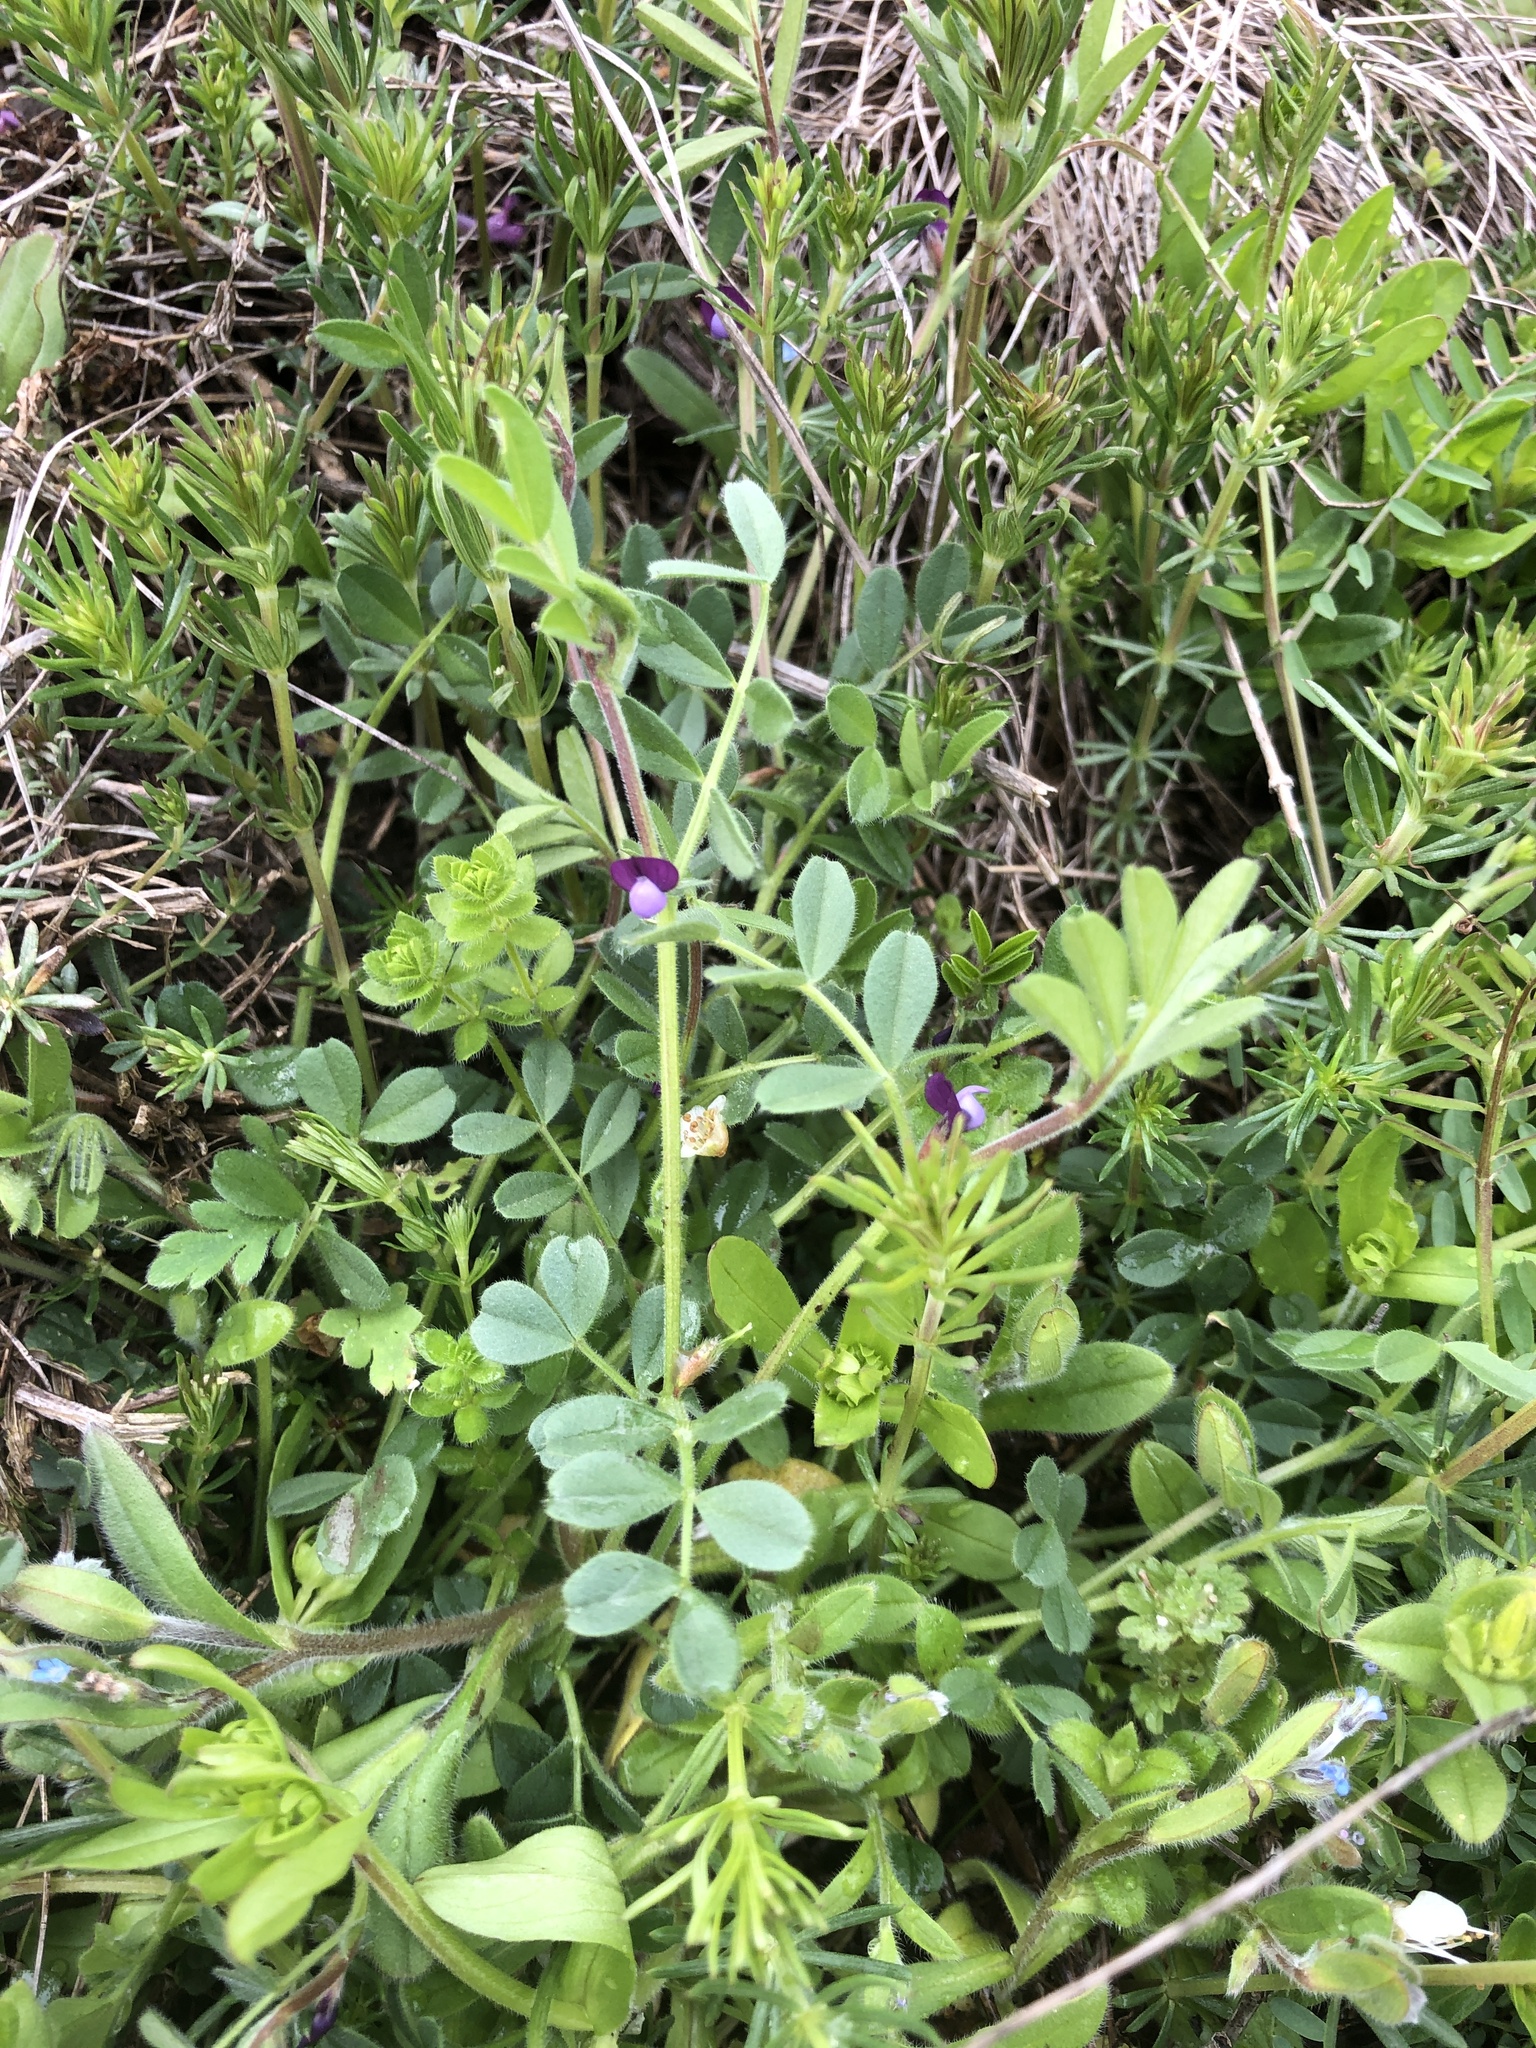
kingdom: Plantae
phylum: Tracheophyta
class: Magnoliopsida
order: Fabales
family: Fabaceae
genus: Vicia
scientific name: Vicia lathyroides
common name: Spring vetch
